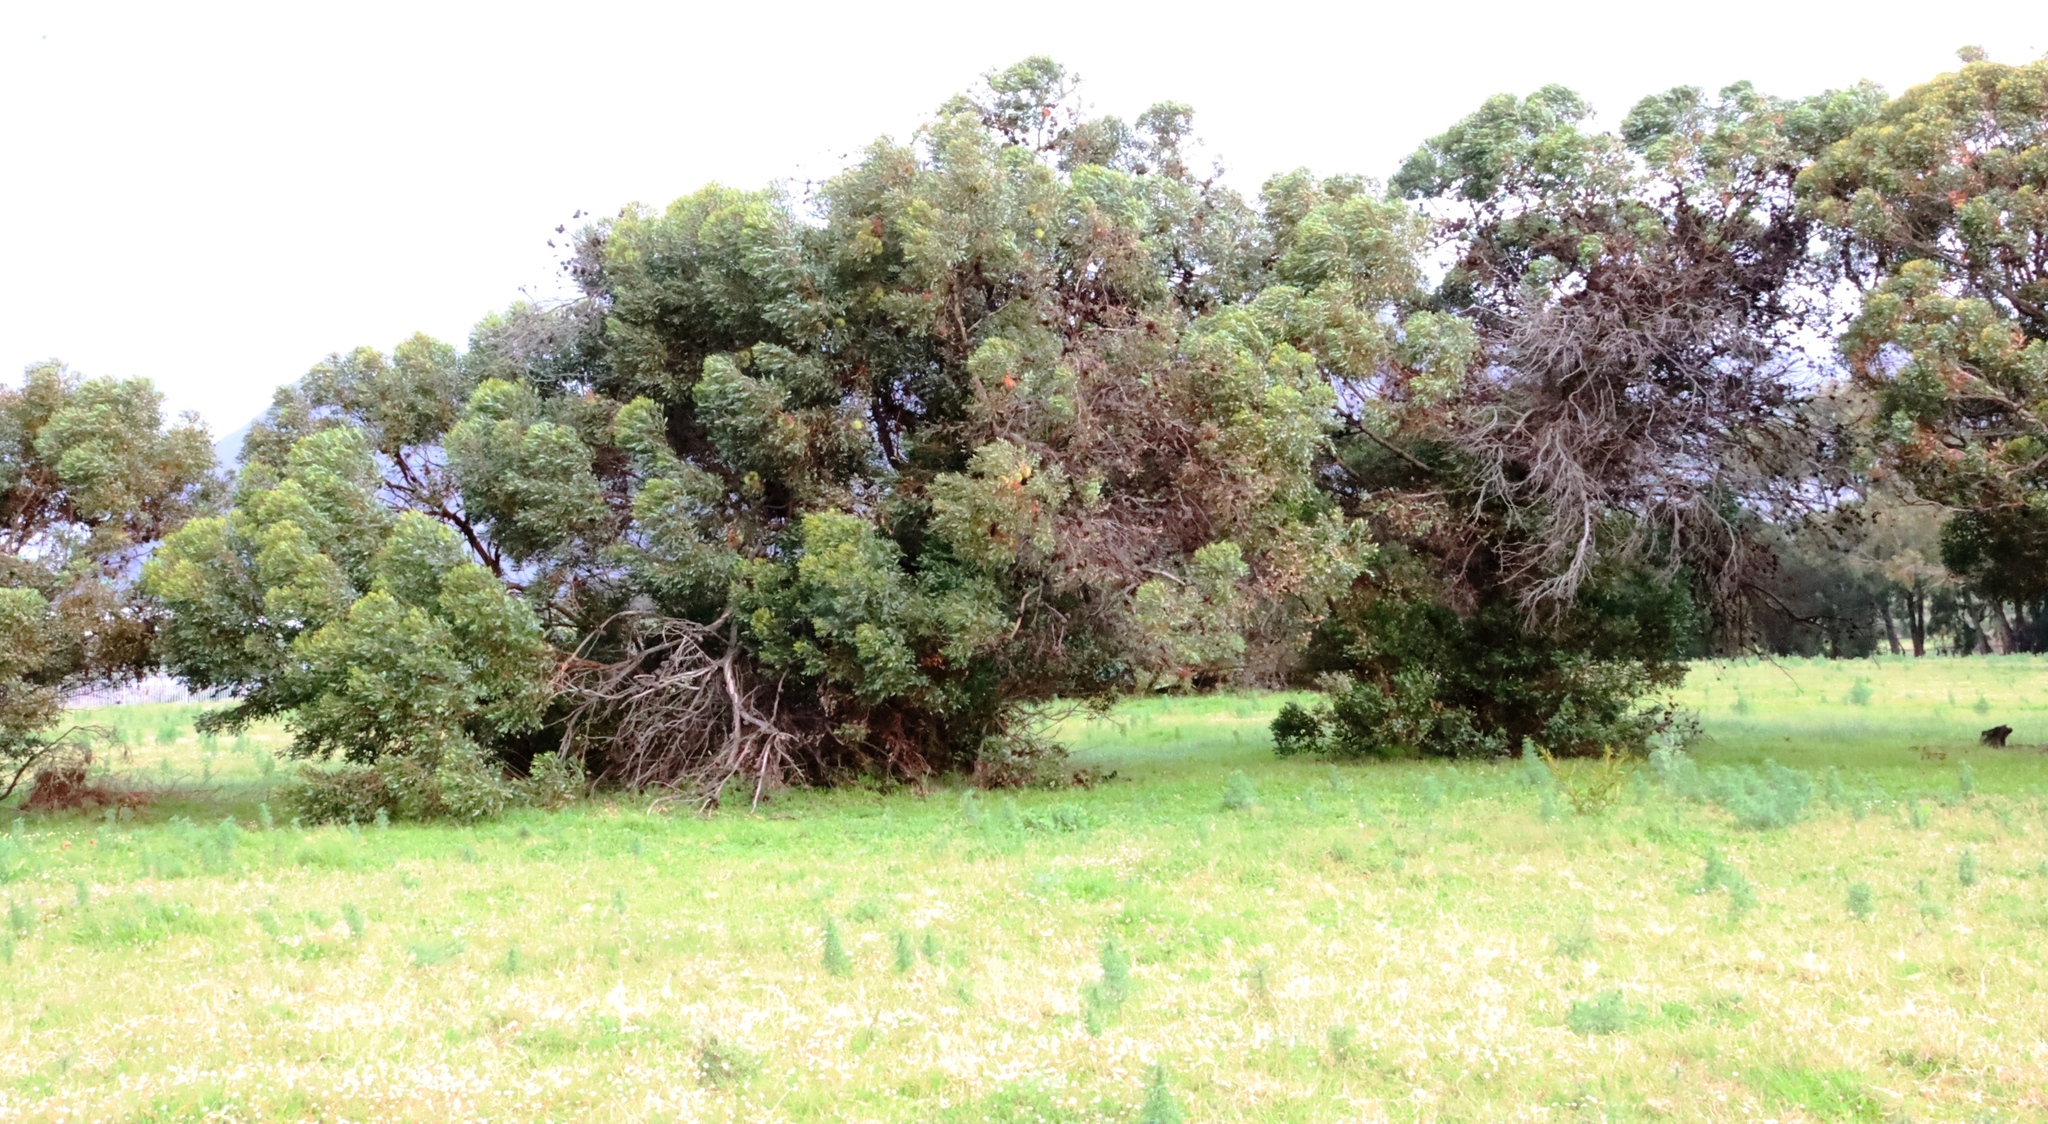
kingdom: Plantae
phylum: Tracheophyta
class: Magnoliopsida
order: Myrtales
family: Myrtaceae
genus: Eucalyptus
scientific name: Eucalyptus conferruminata
